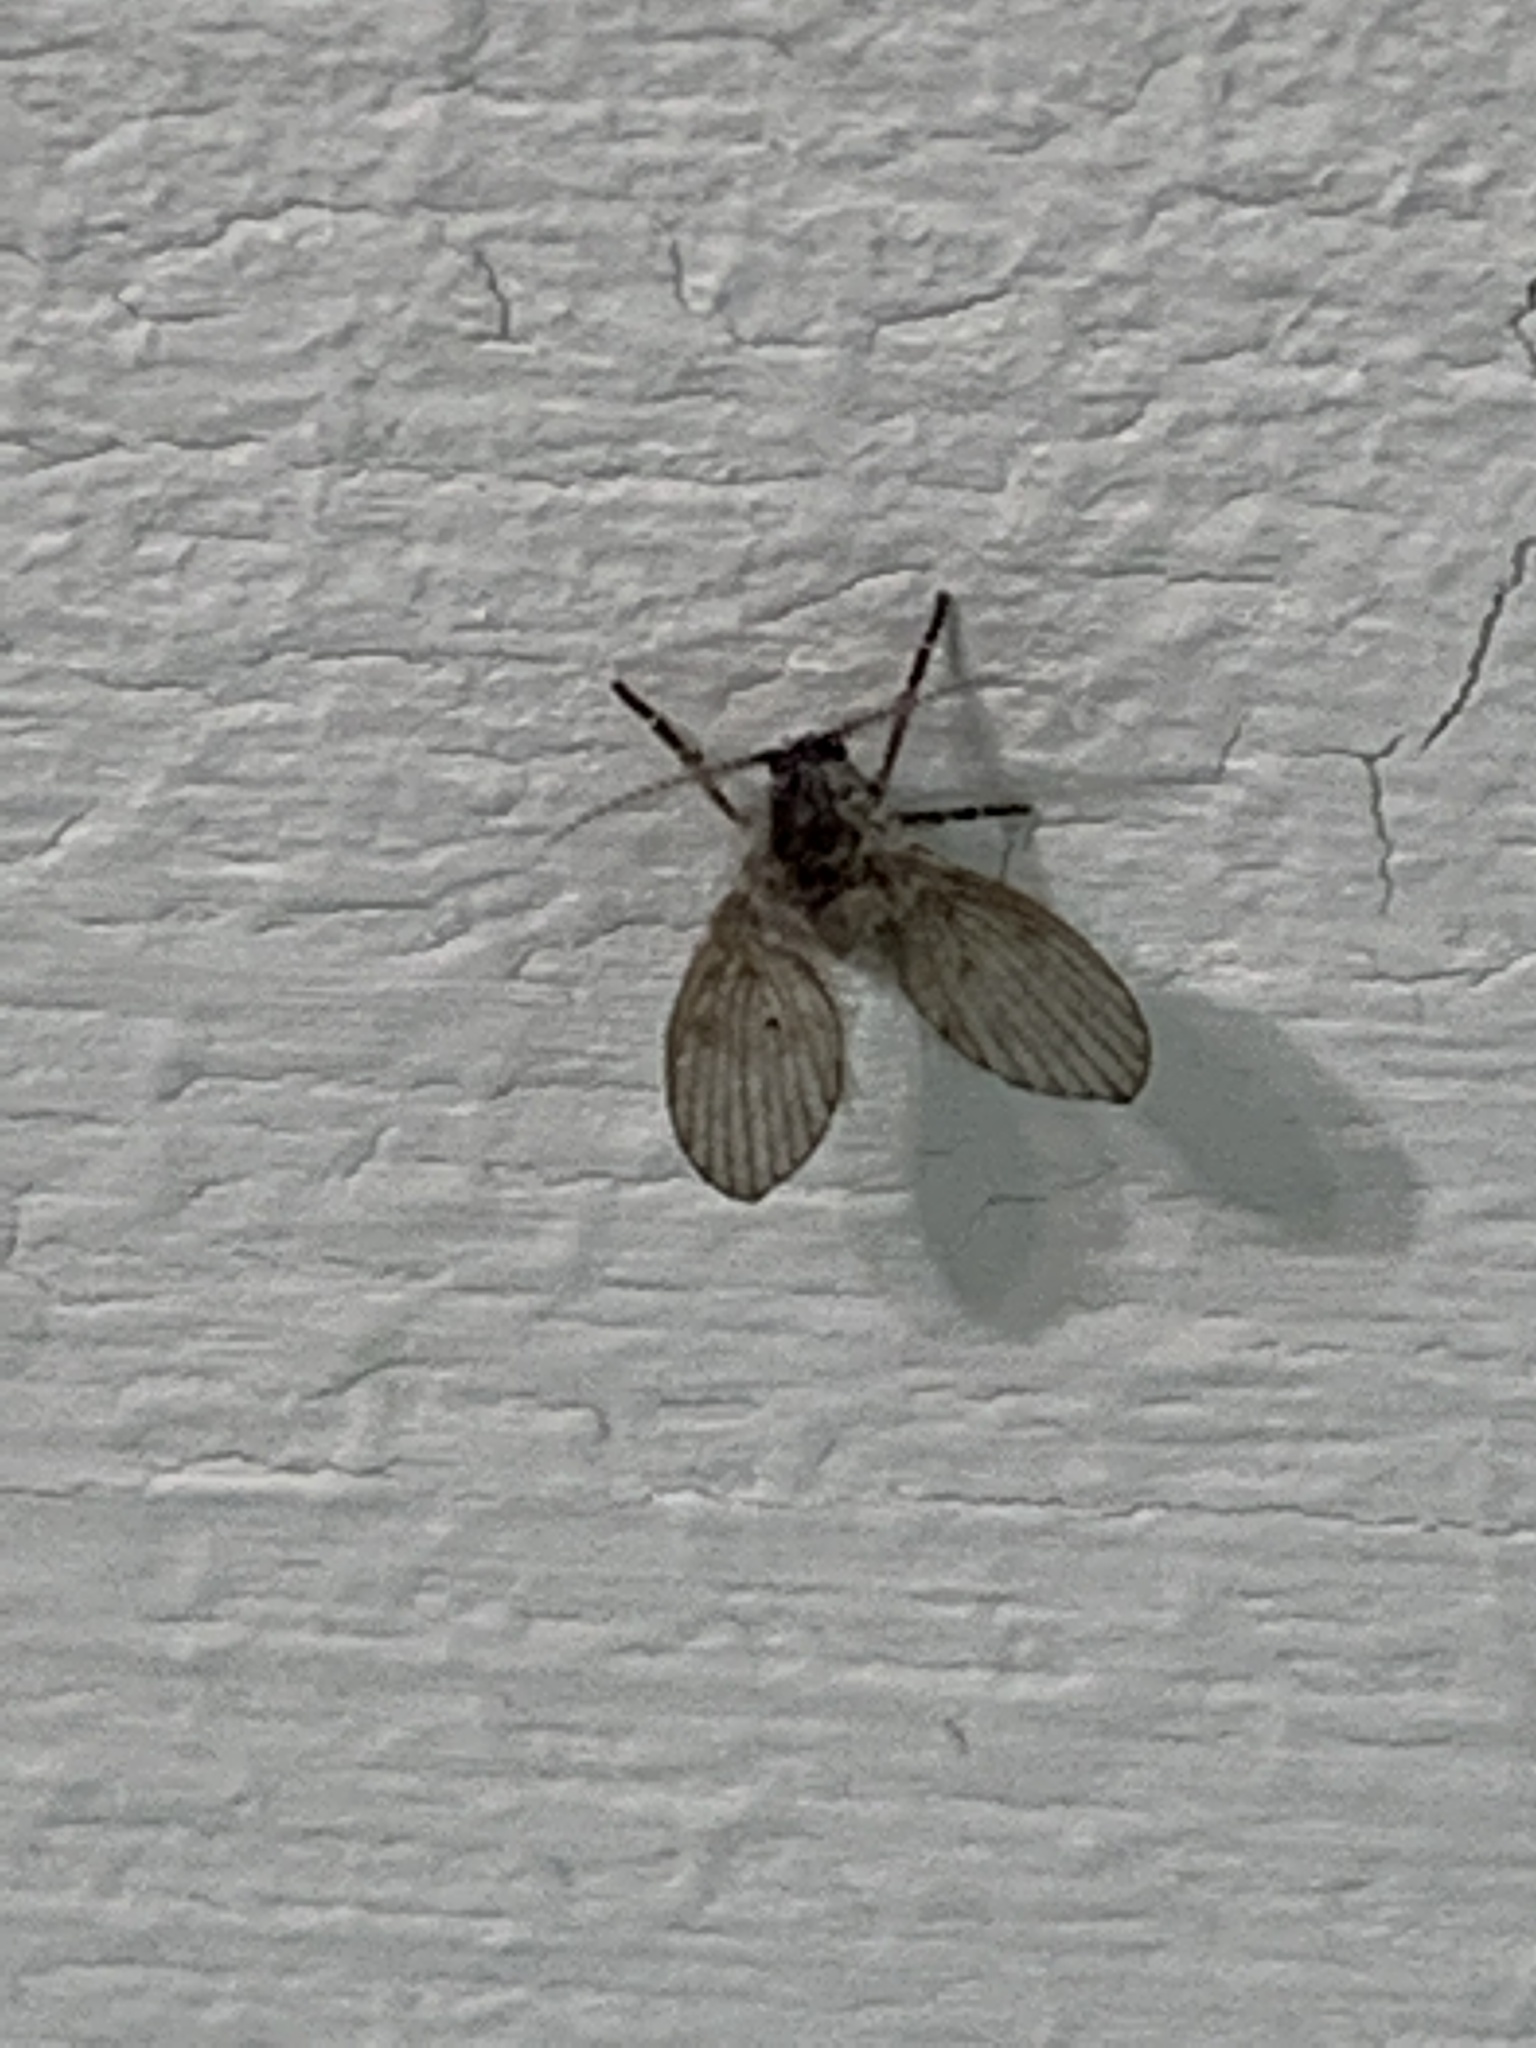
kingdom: Animalia
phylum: Arthropoda
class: Insecta
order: Diptera
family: Psychodidae
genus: Clogmia
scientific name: Clogmia albipunctatus
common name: White-spotted moth fly
